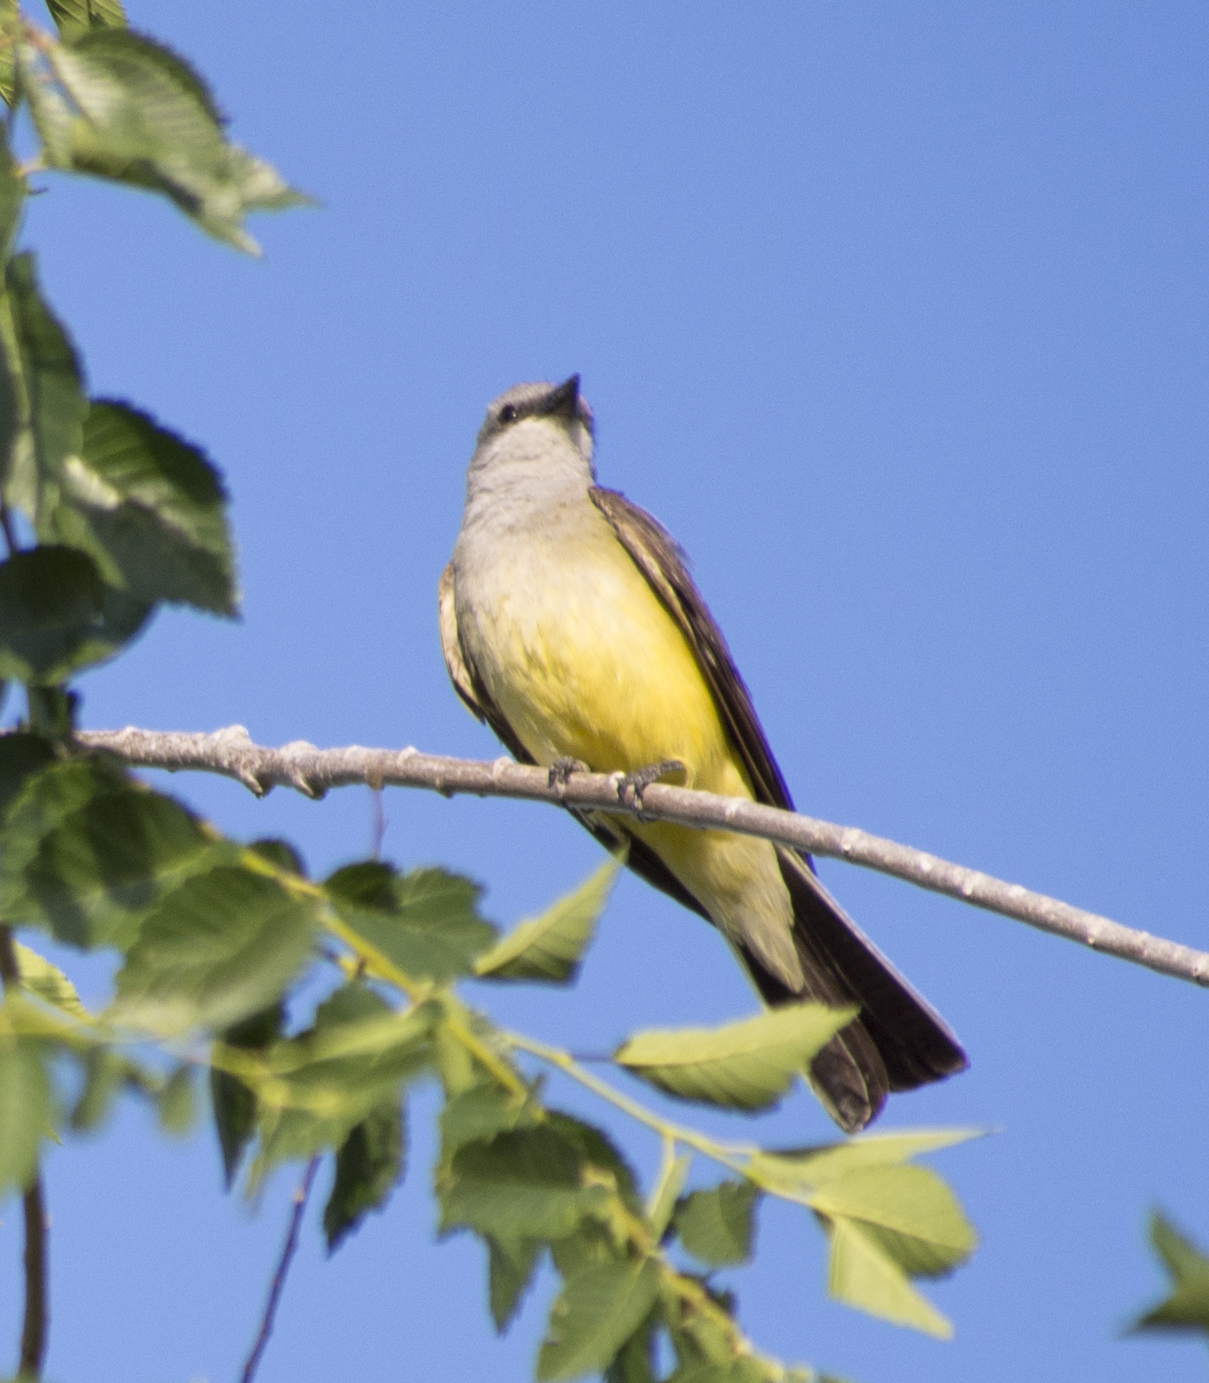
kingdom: Animalia
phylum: Chordata
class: Aves
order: Passeriformes
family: Tyrannidae
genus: Tyrannus
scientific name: Tyrannus verticalis
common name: Western kingbird
